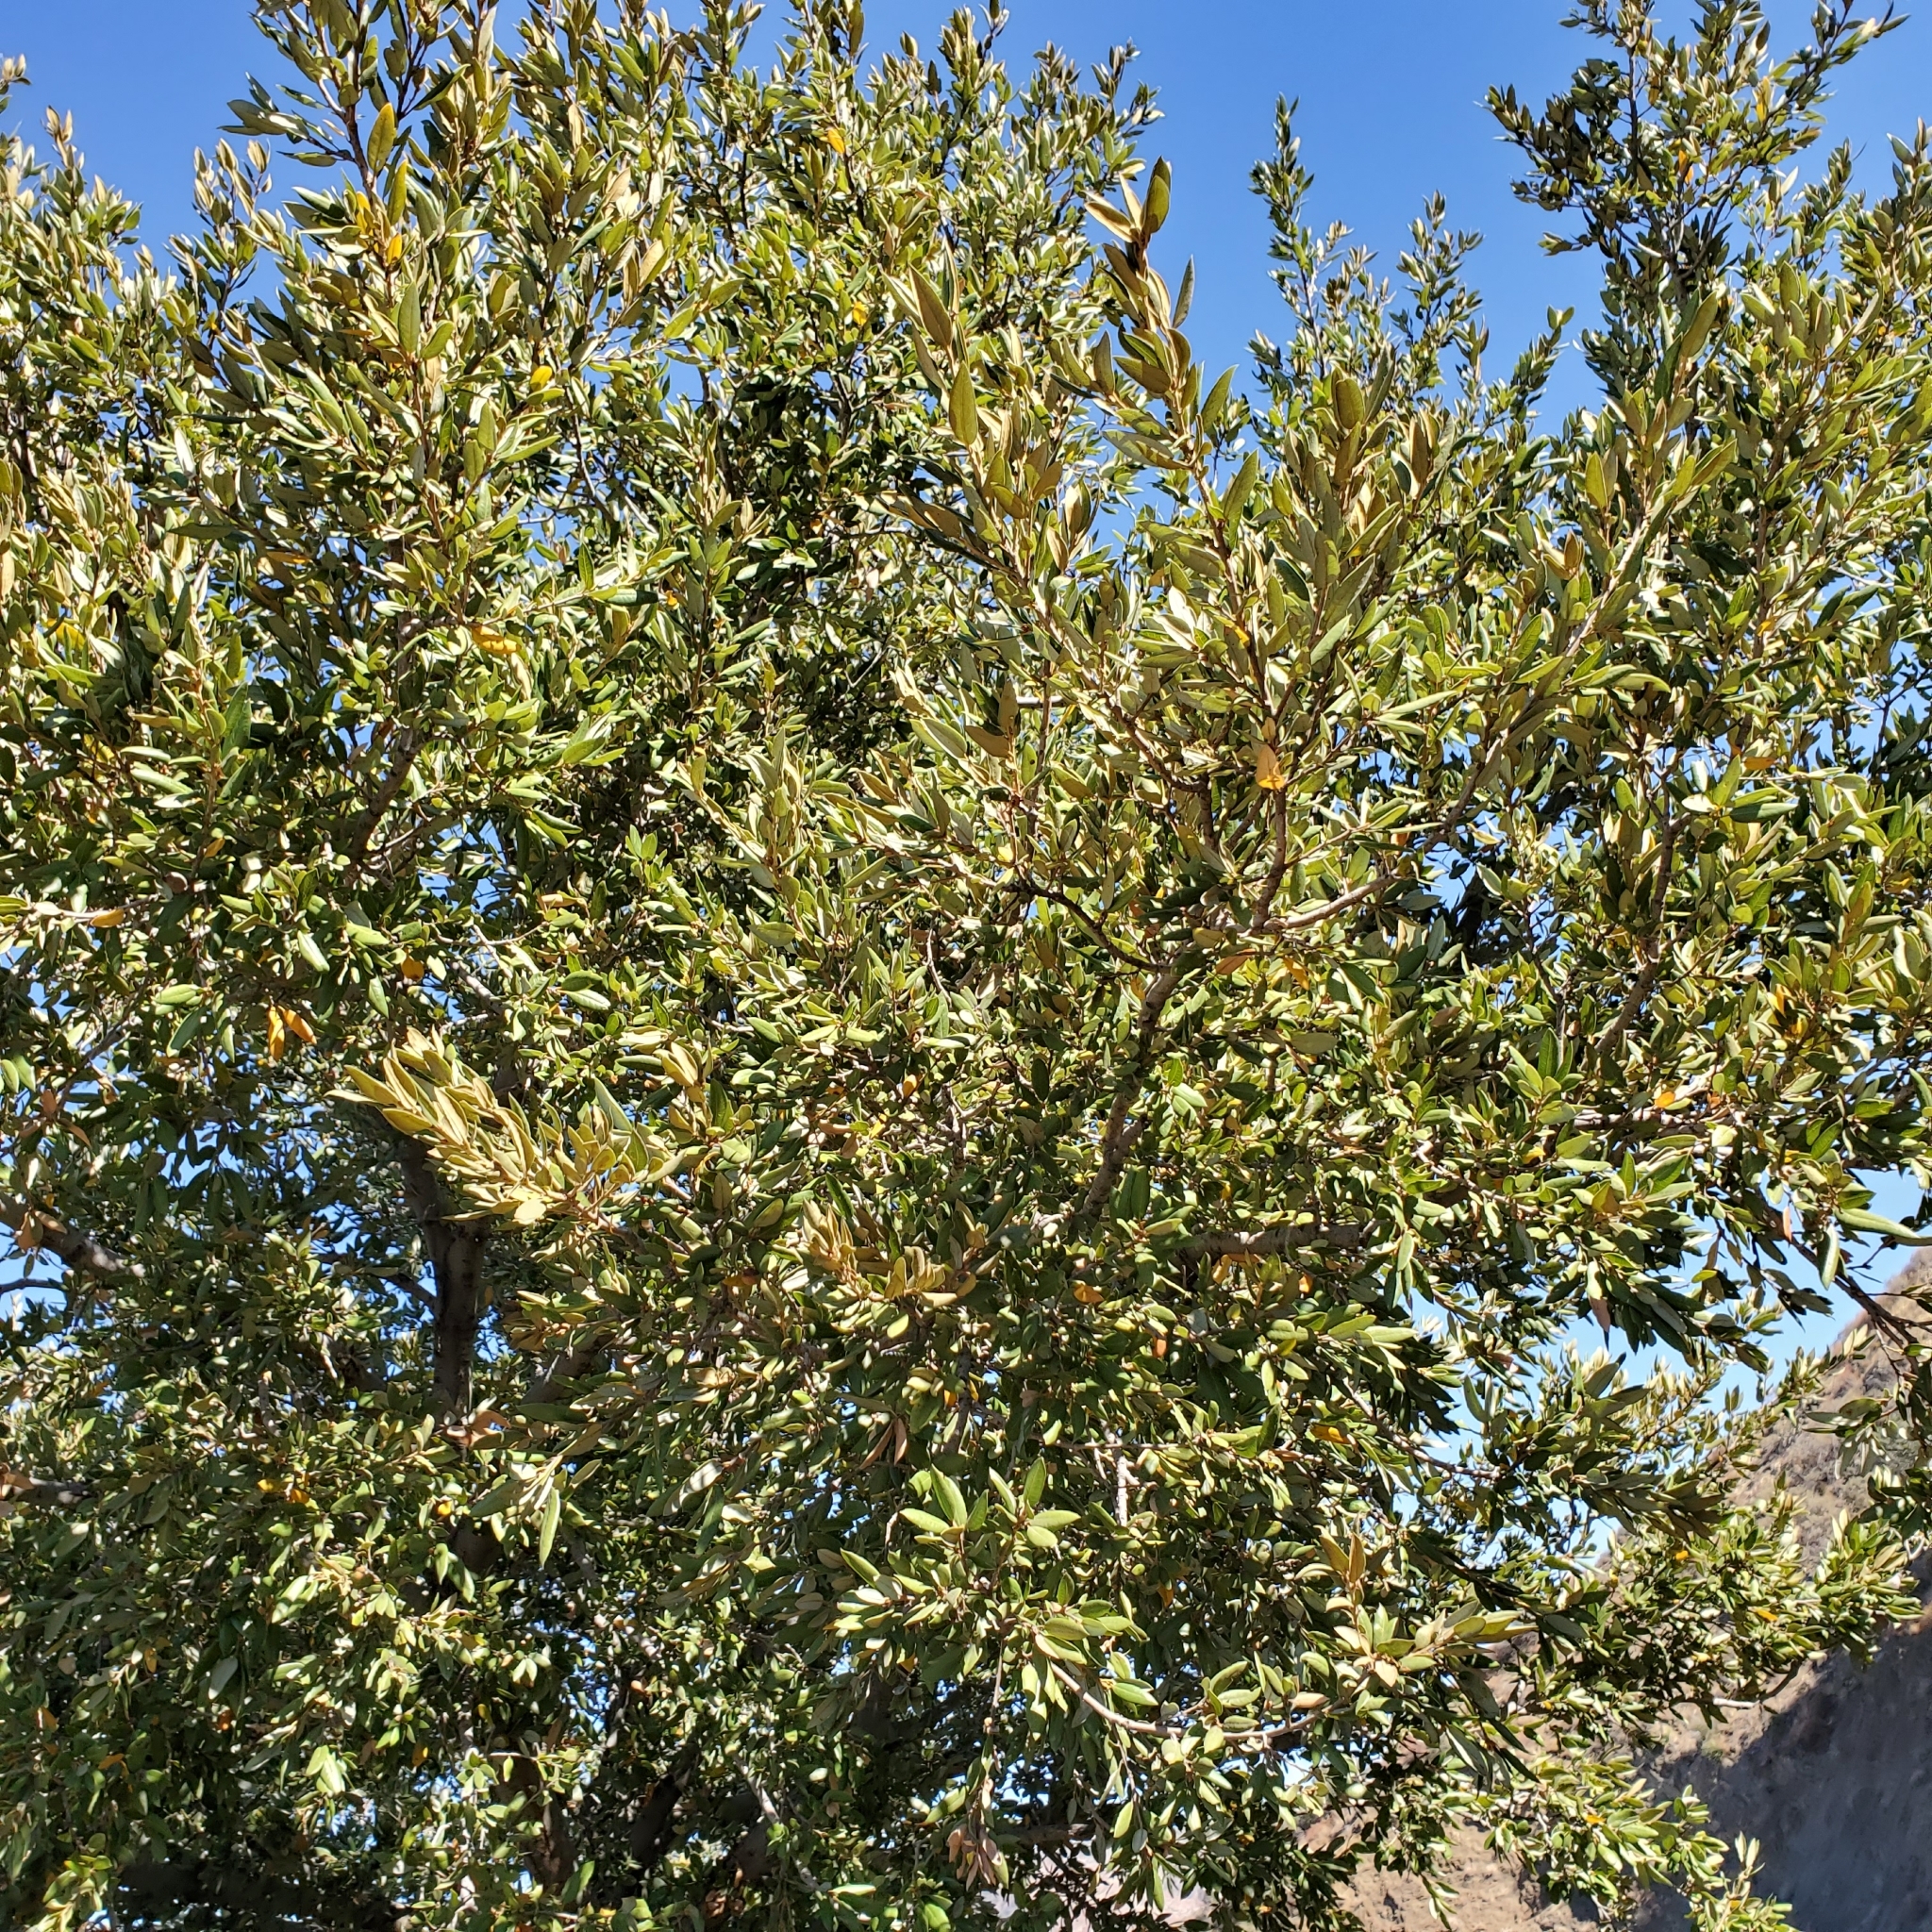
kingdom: Plantae
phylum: Tracheophyta
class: Magnoliopsida
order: Fagales
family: Fagaceae
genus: Quercus
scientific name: Quercus chrysolepis
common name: Canyon live oak
